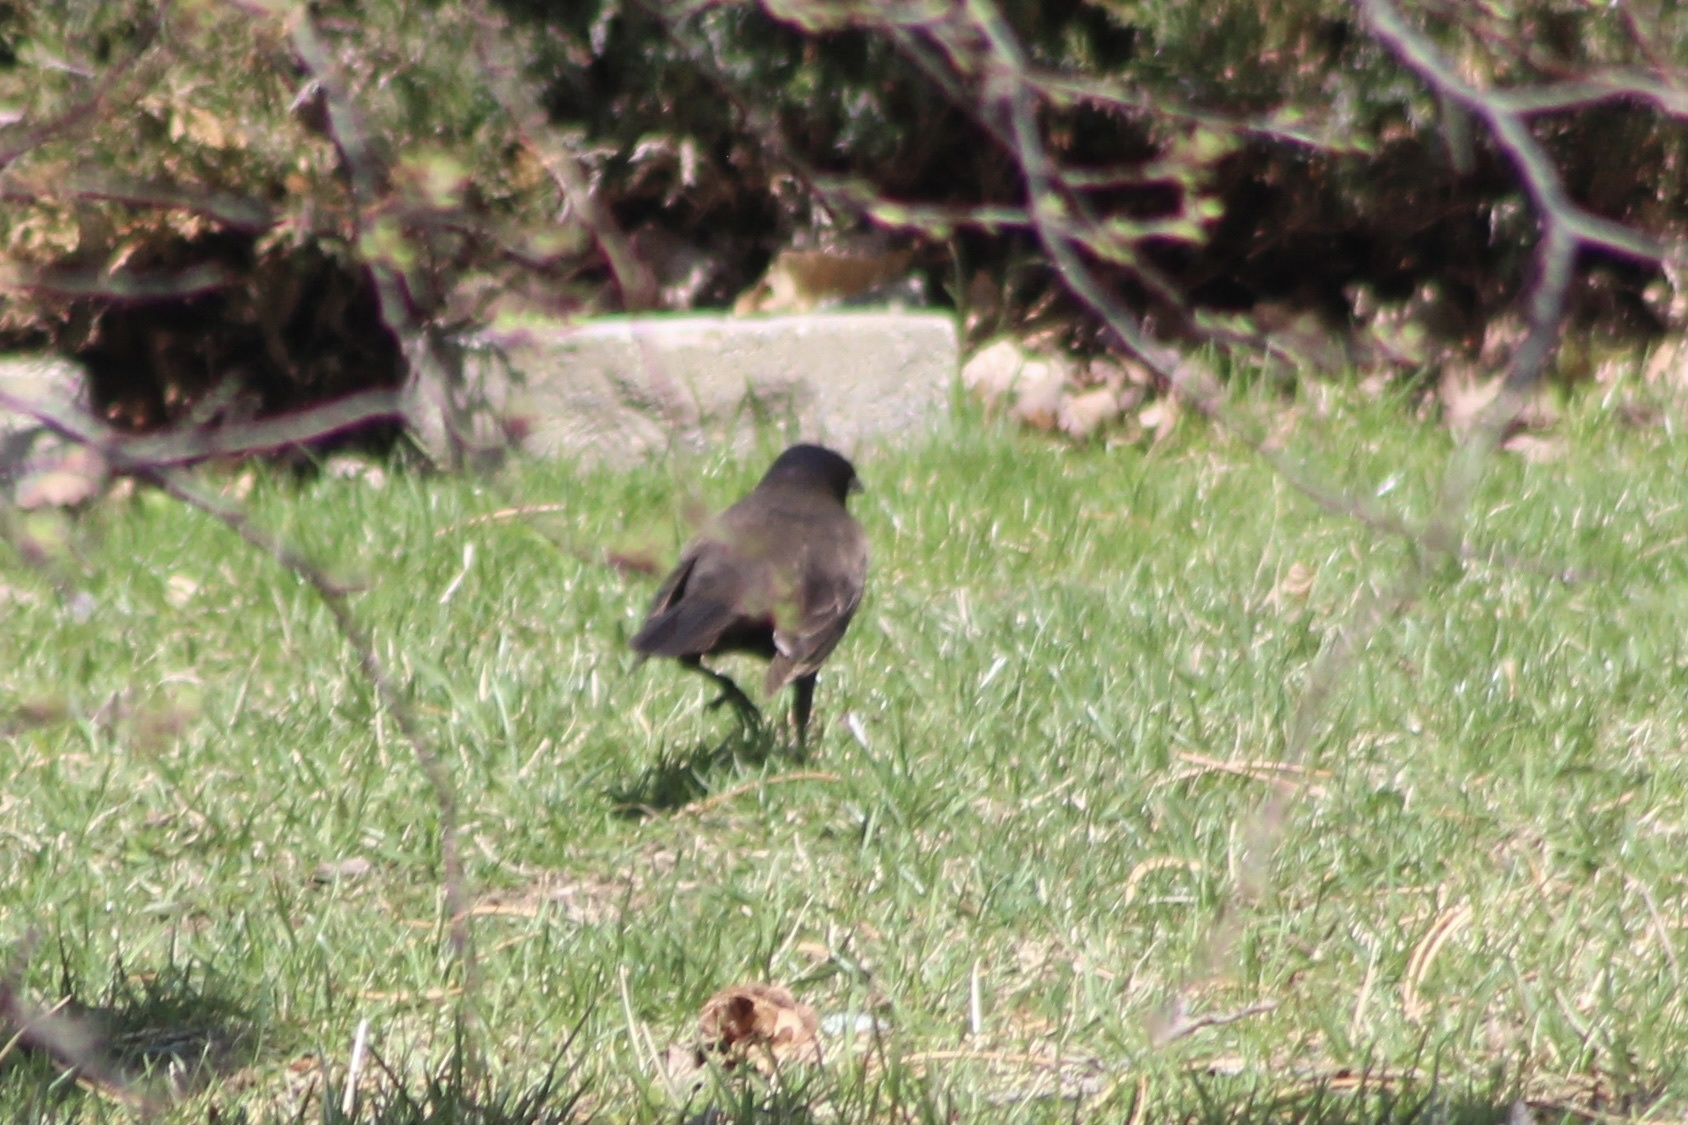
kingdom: Animalia
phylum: Chordata
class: Aves
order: Passeriformes
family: Icteridae
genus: Quiscalus
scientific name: Quiscalus quiscula
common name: Common grackle
